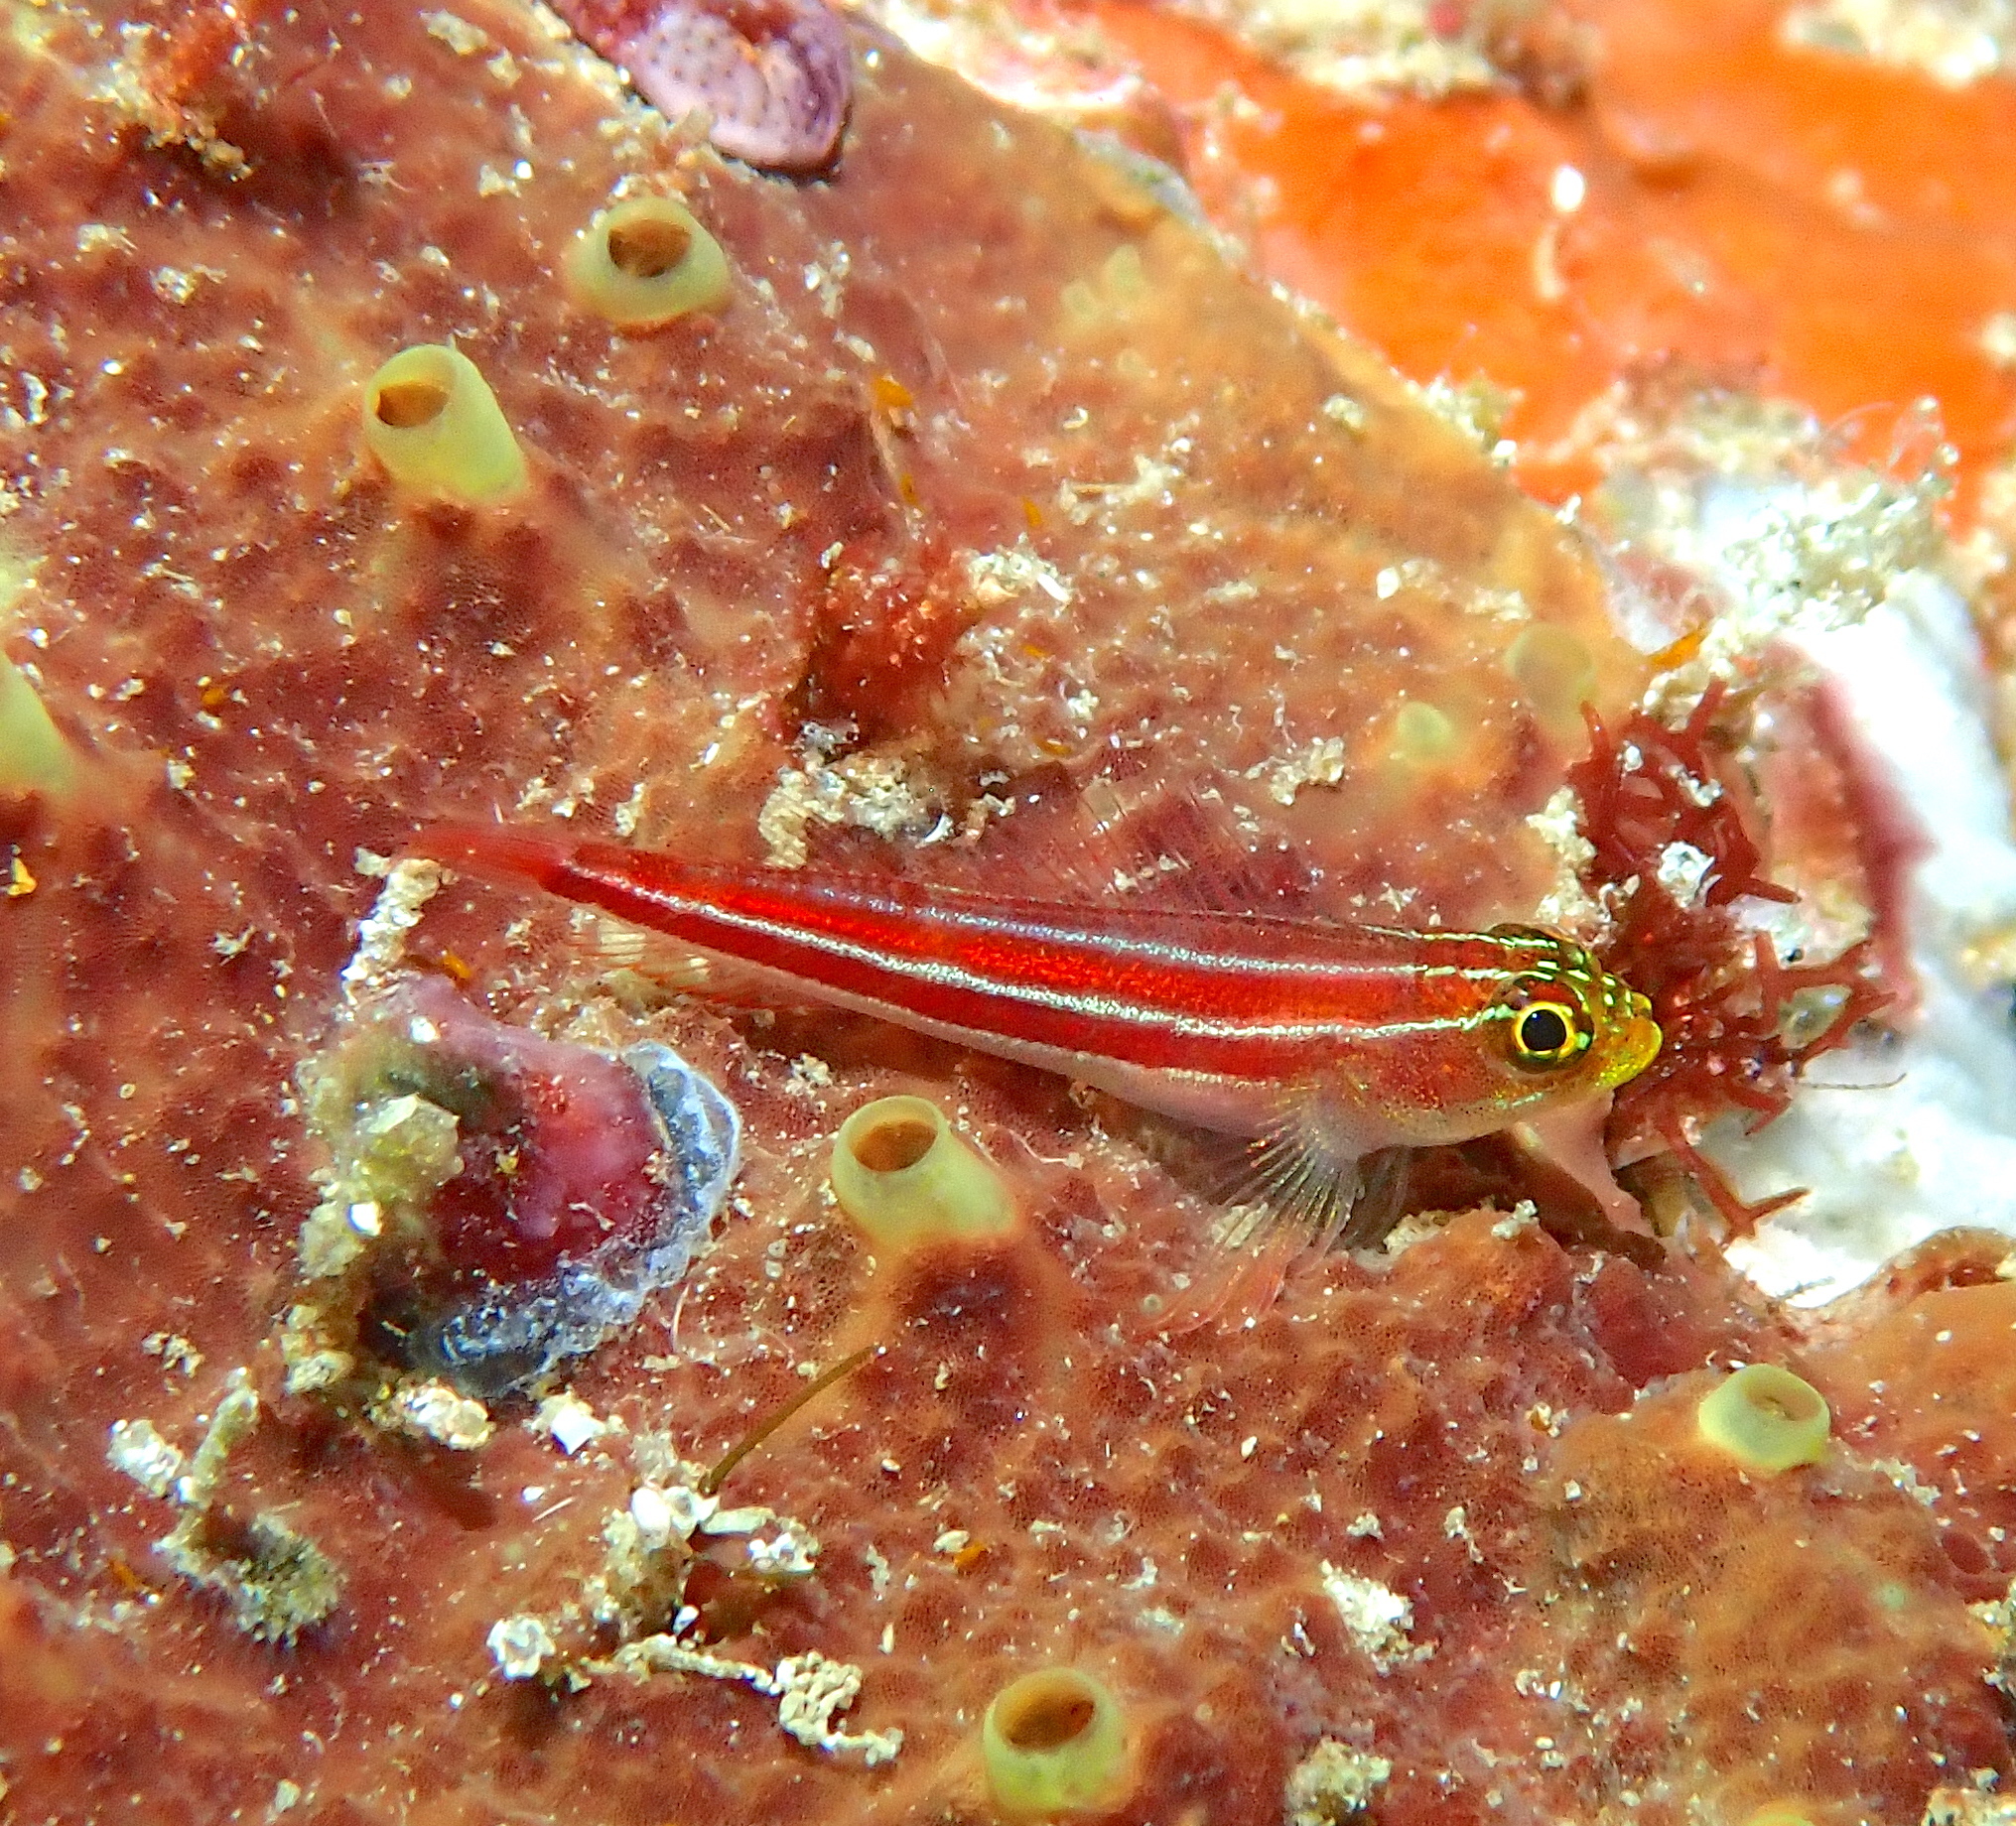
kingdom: Animalia
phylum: Chordata
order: Perciformes
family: Tripterygiidae
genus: Helcogramma
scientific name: Helcogramma striata
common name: Striped threefin
